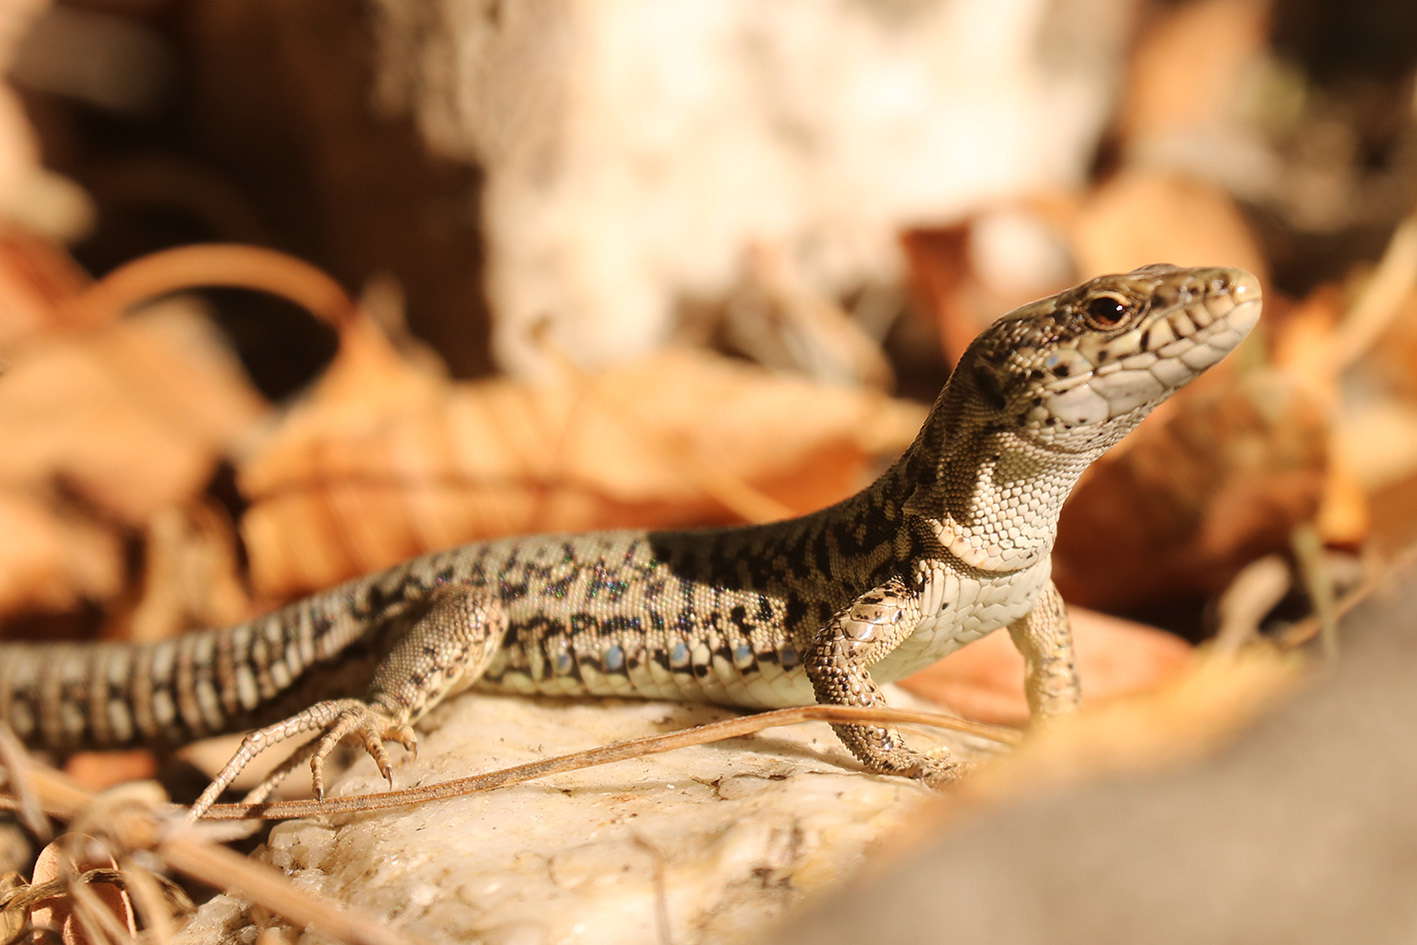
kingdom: Animalia
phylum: Chordata
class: Squamata
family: Lacertidae
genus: Podarcis
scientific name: Podarcis muralis
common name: Common wall lizard
